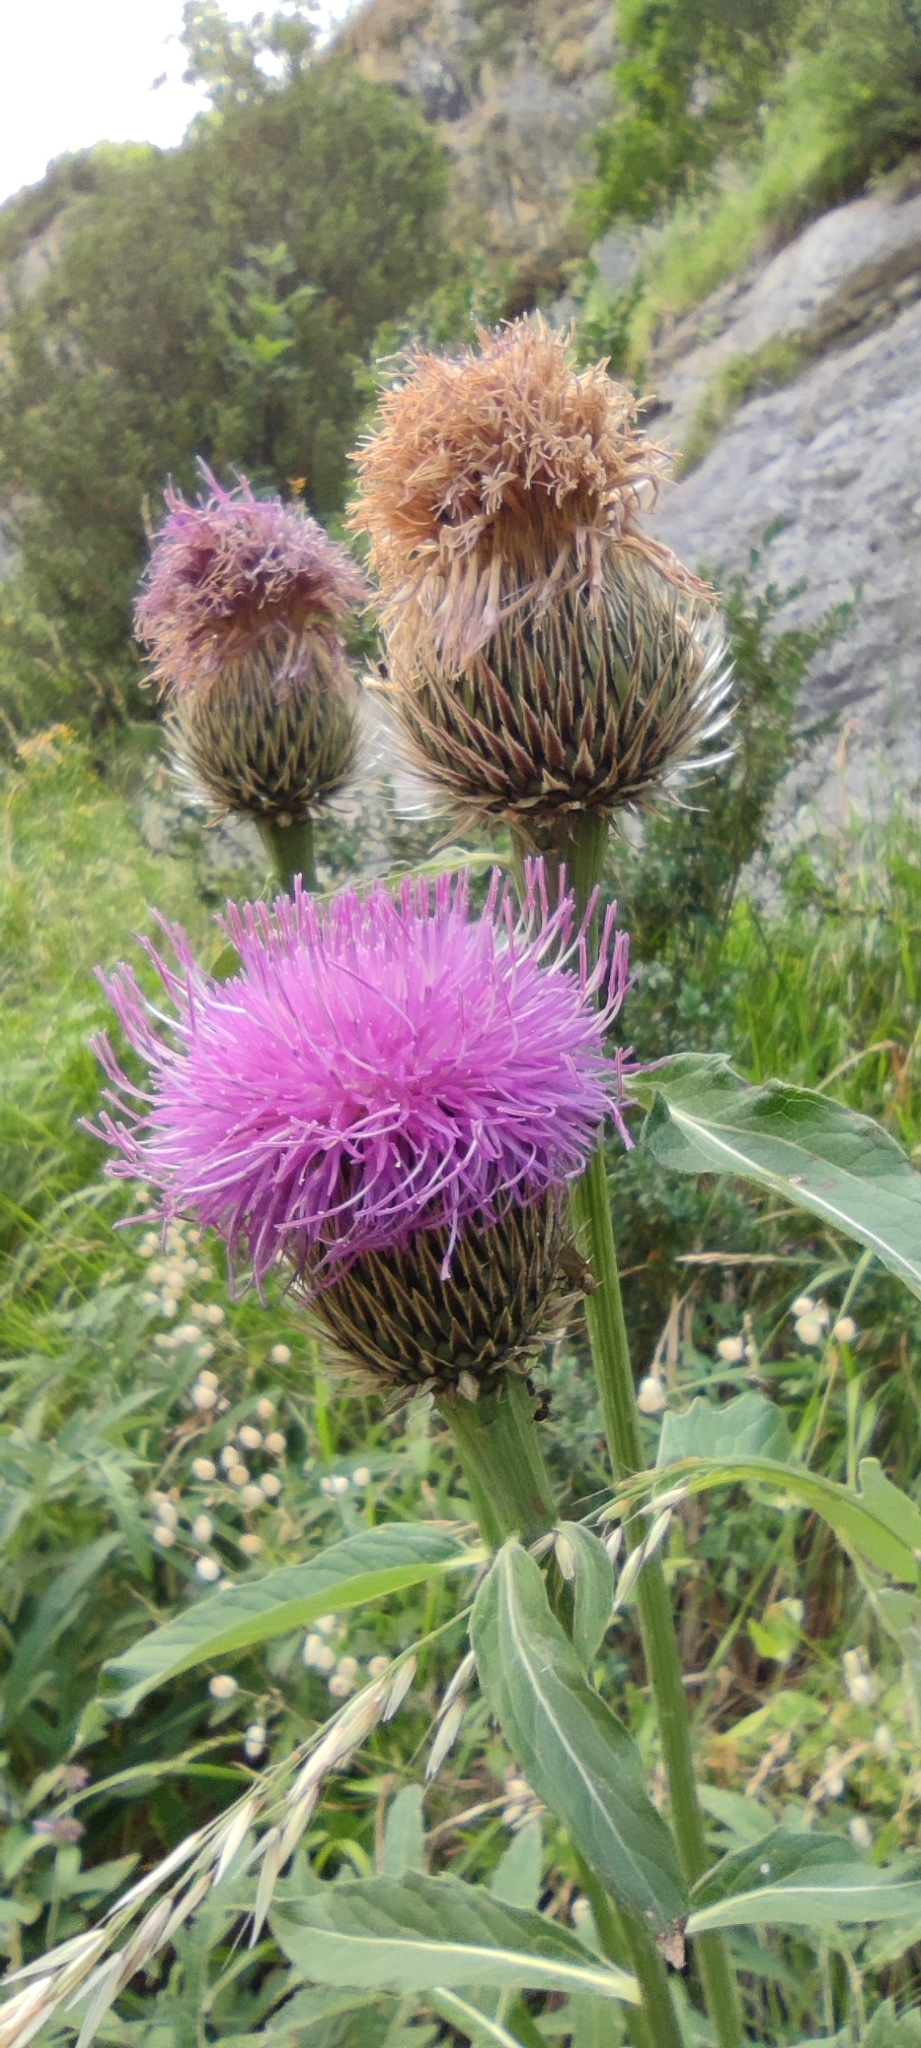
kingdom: Plantae
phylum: Tracheophyta
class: Magnoliopsida
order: Asterales
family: Asteraceae
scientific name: Asteraceae
